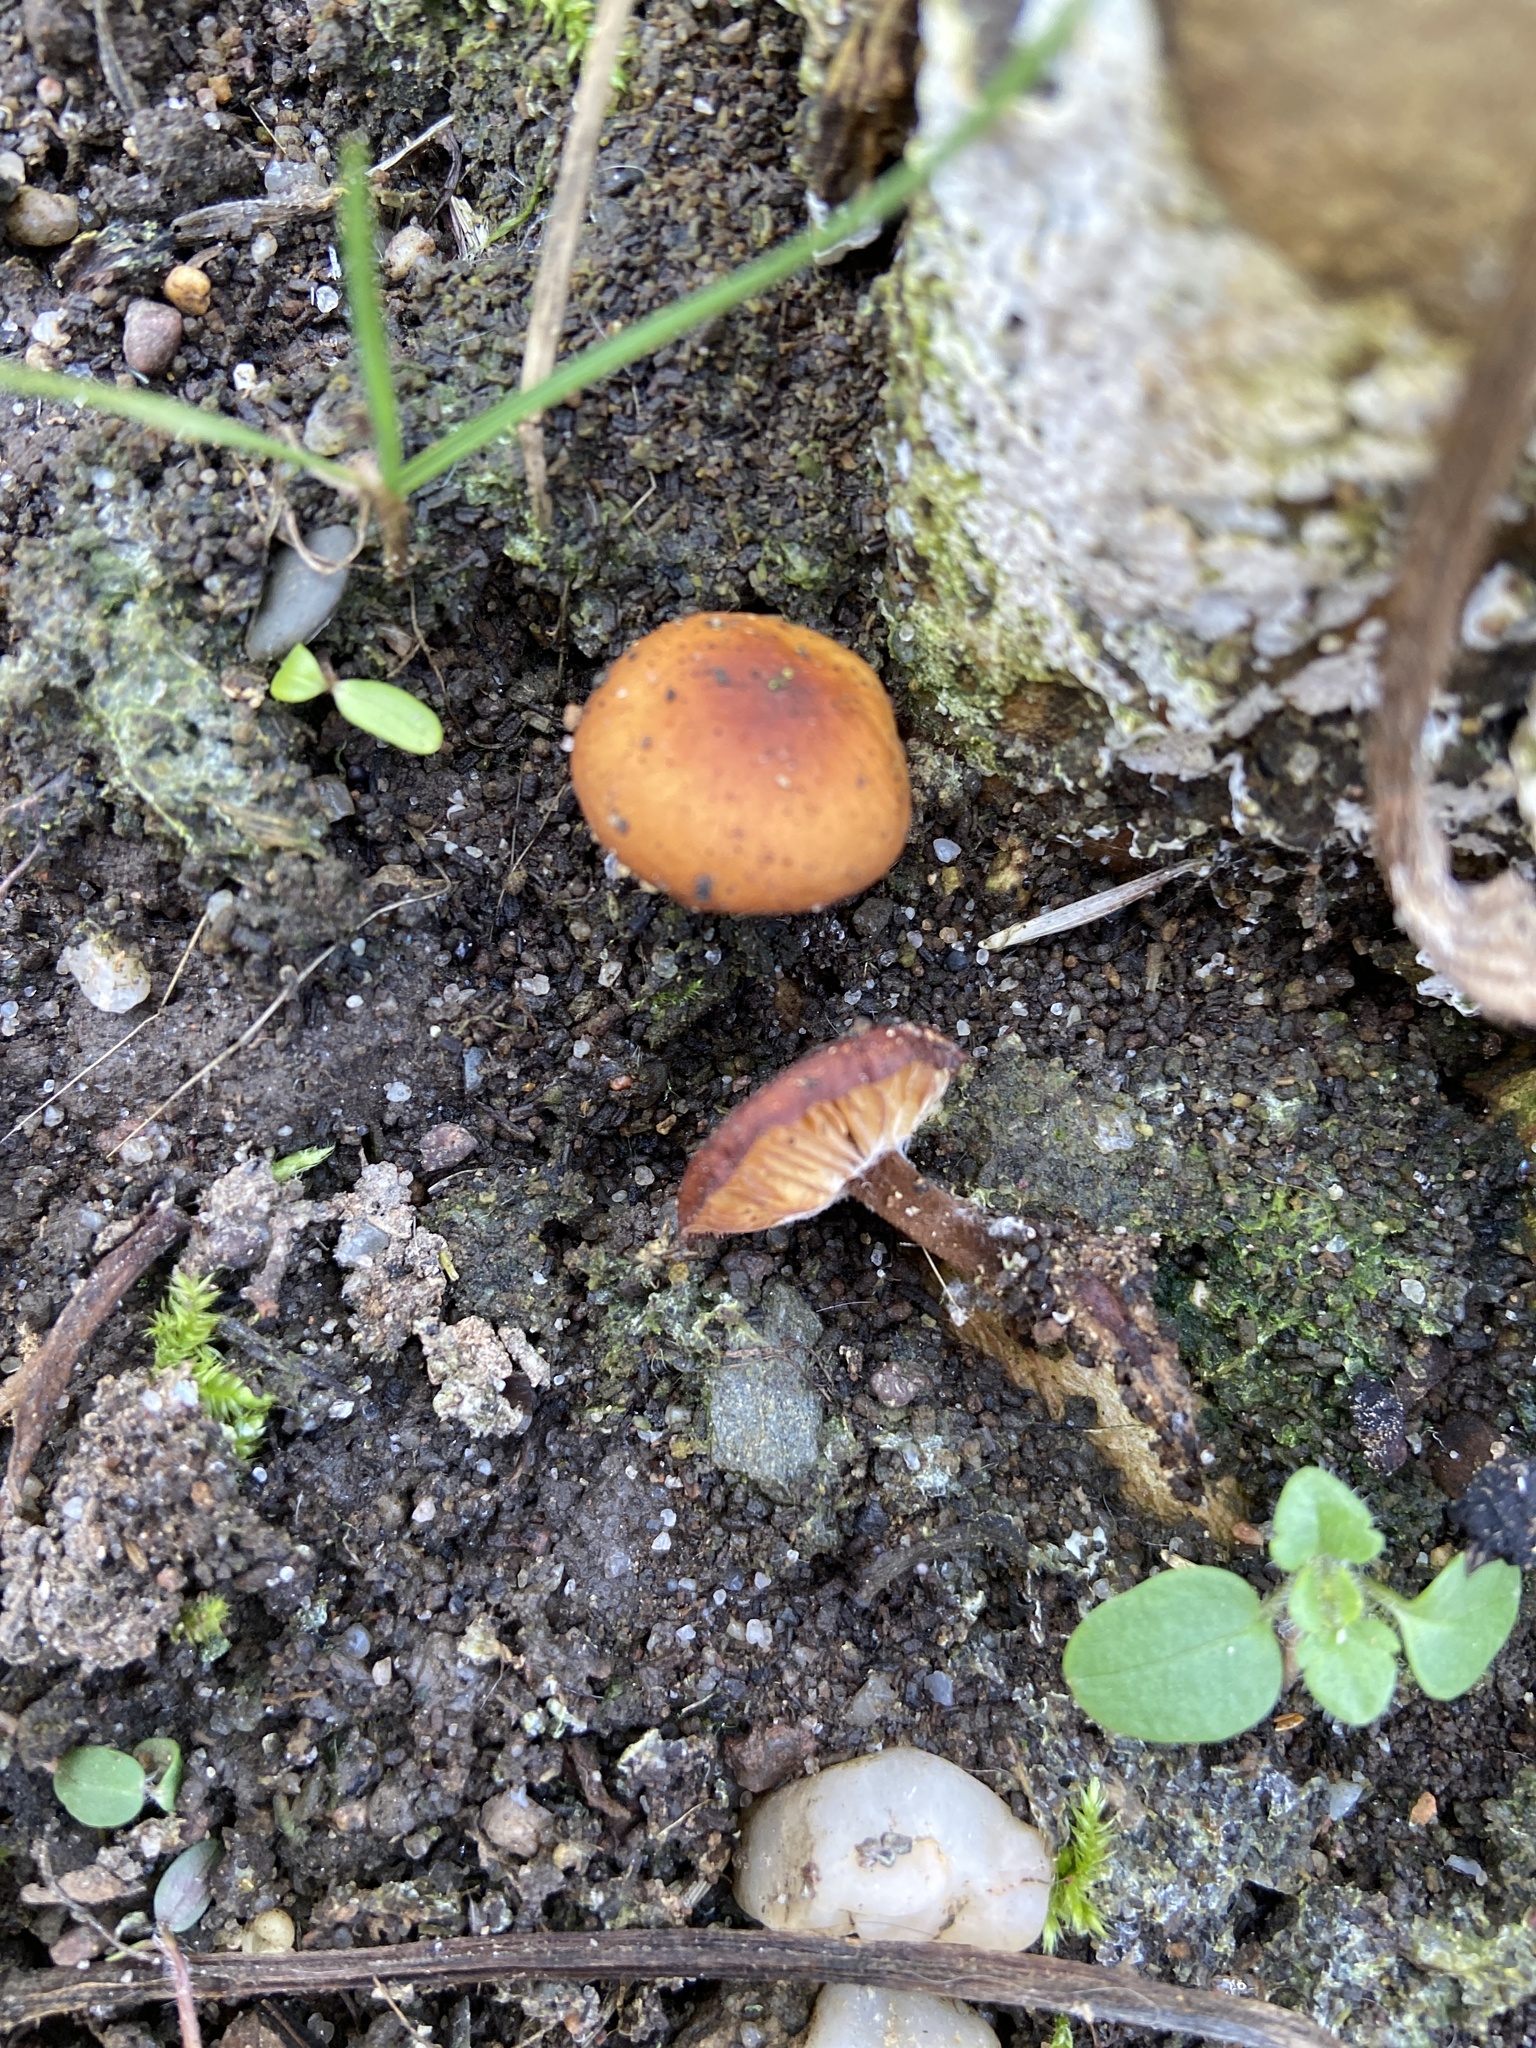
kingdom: Fungi
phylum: Basidiomycota
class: Agaricomycetes
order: Agaricales
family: Physalacriaceae
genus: Flammulina
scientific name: Flammulina
